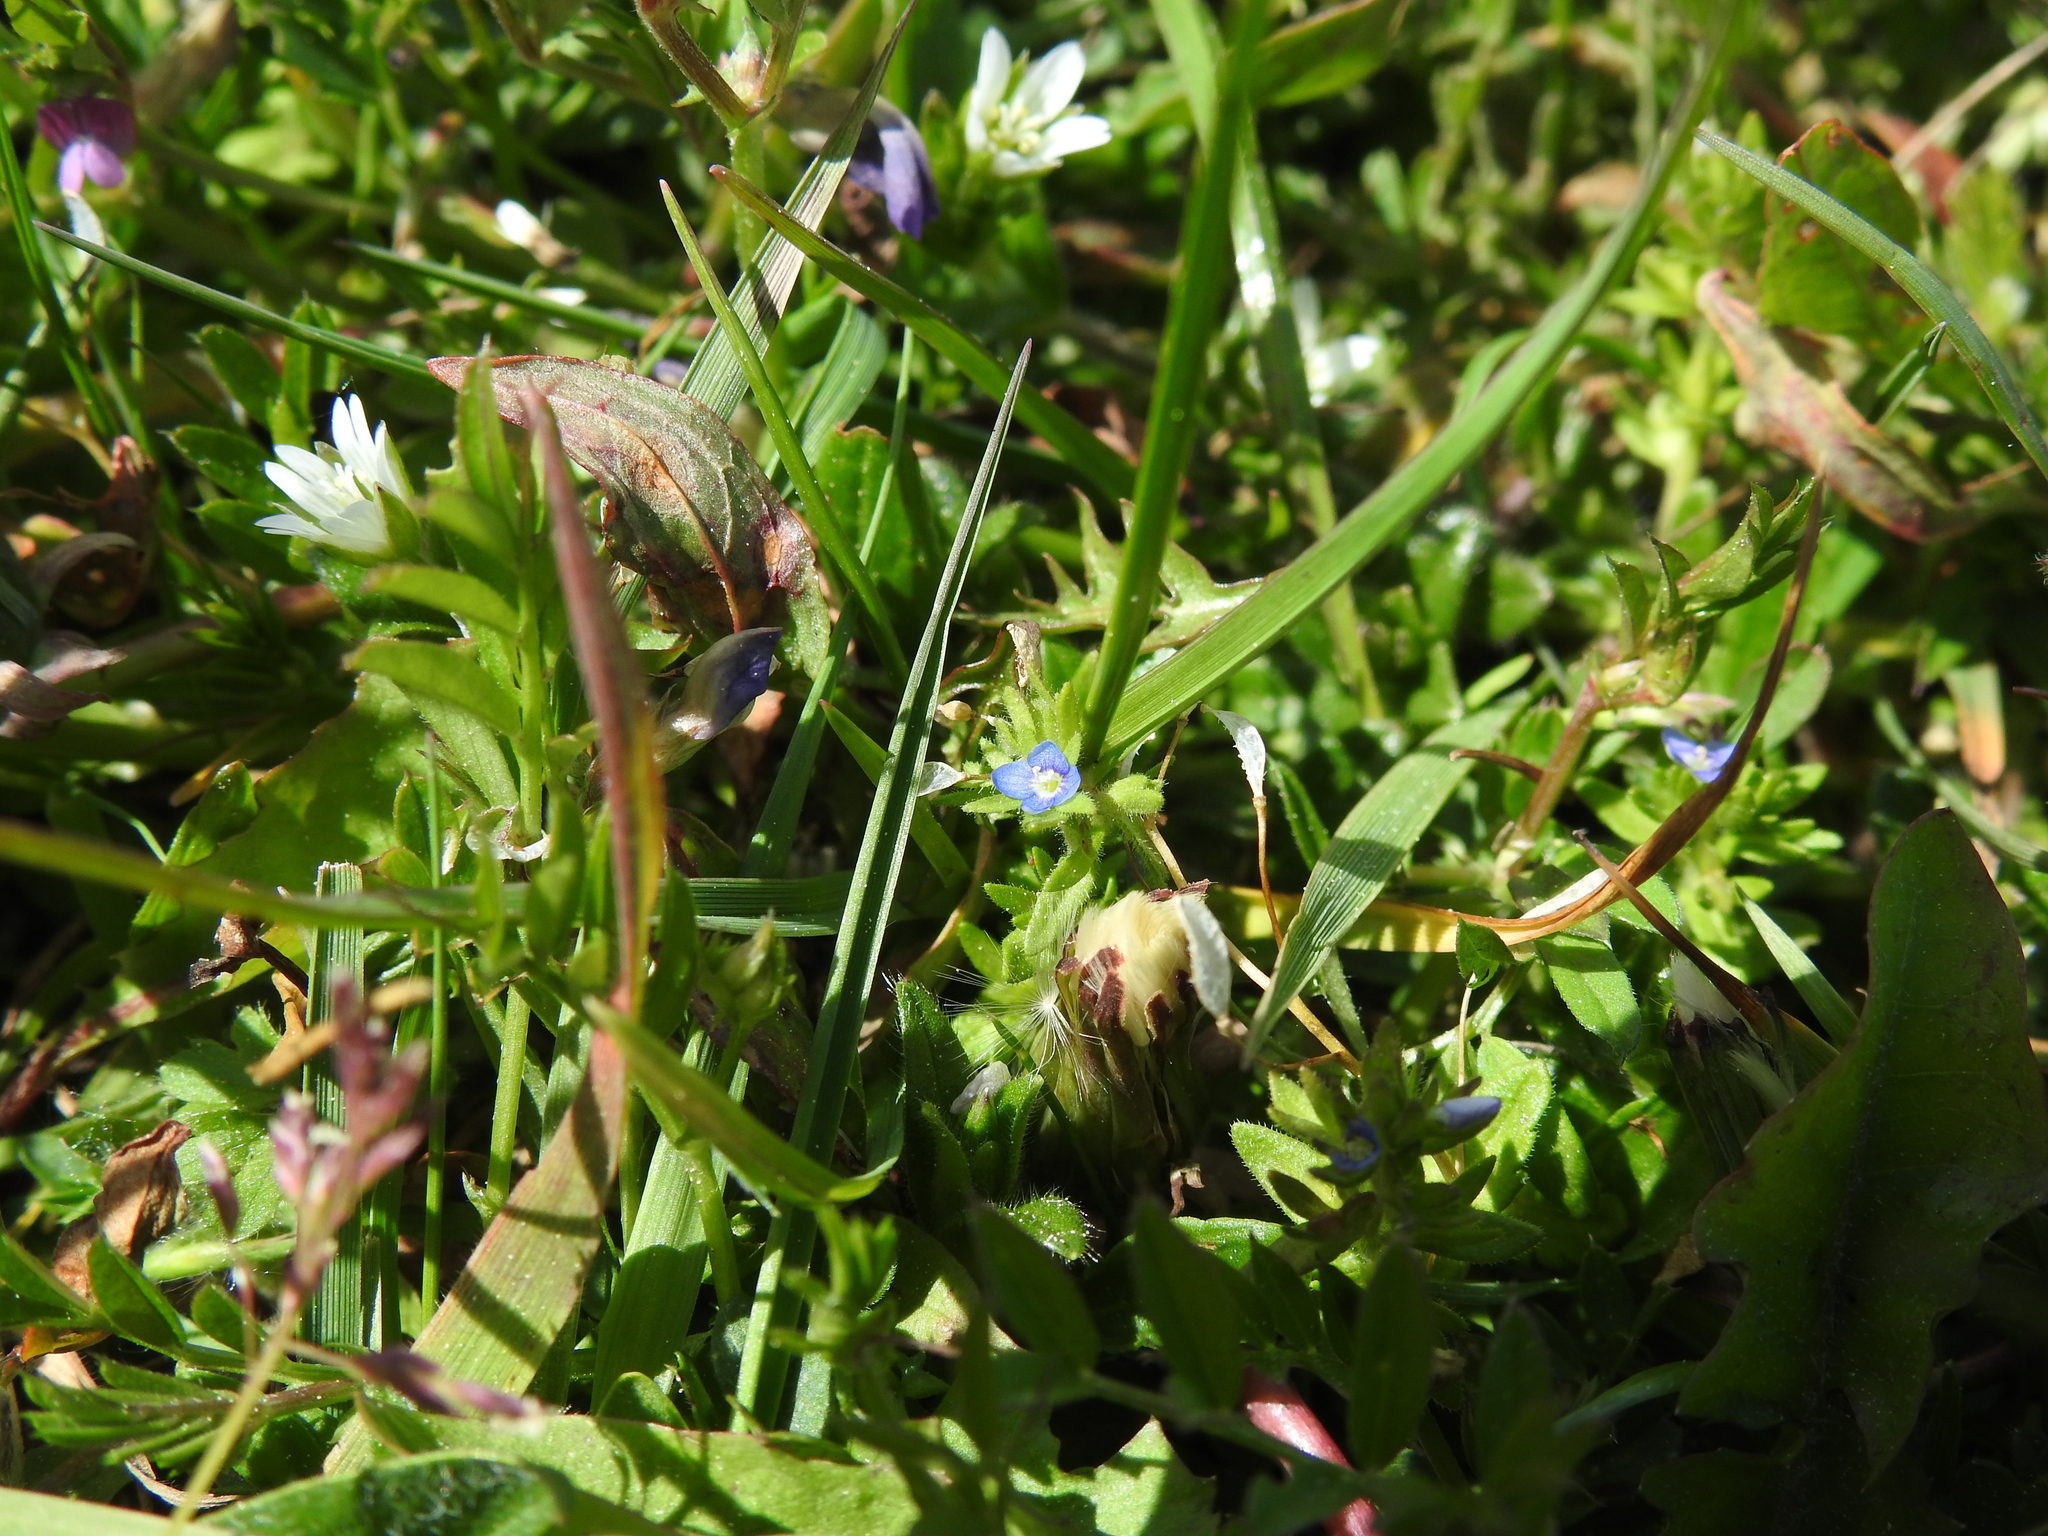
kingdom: Plantae
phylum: Tracheophyta
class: Magnoliopsida
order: Lamiales
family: Plantaginaceae
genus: Veronica
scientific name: Veronica arvensis
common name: Corn speedwell
